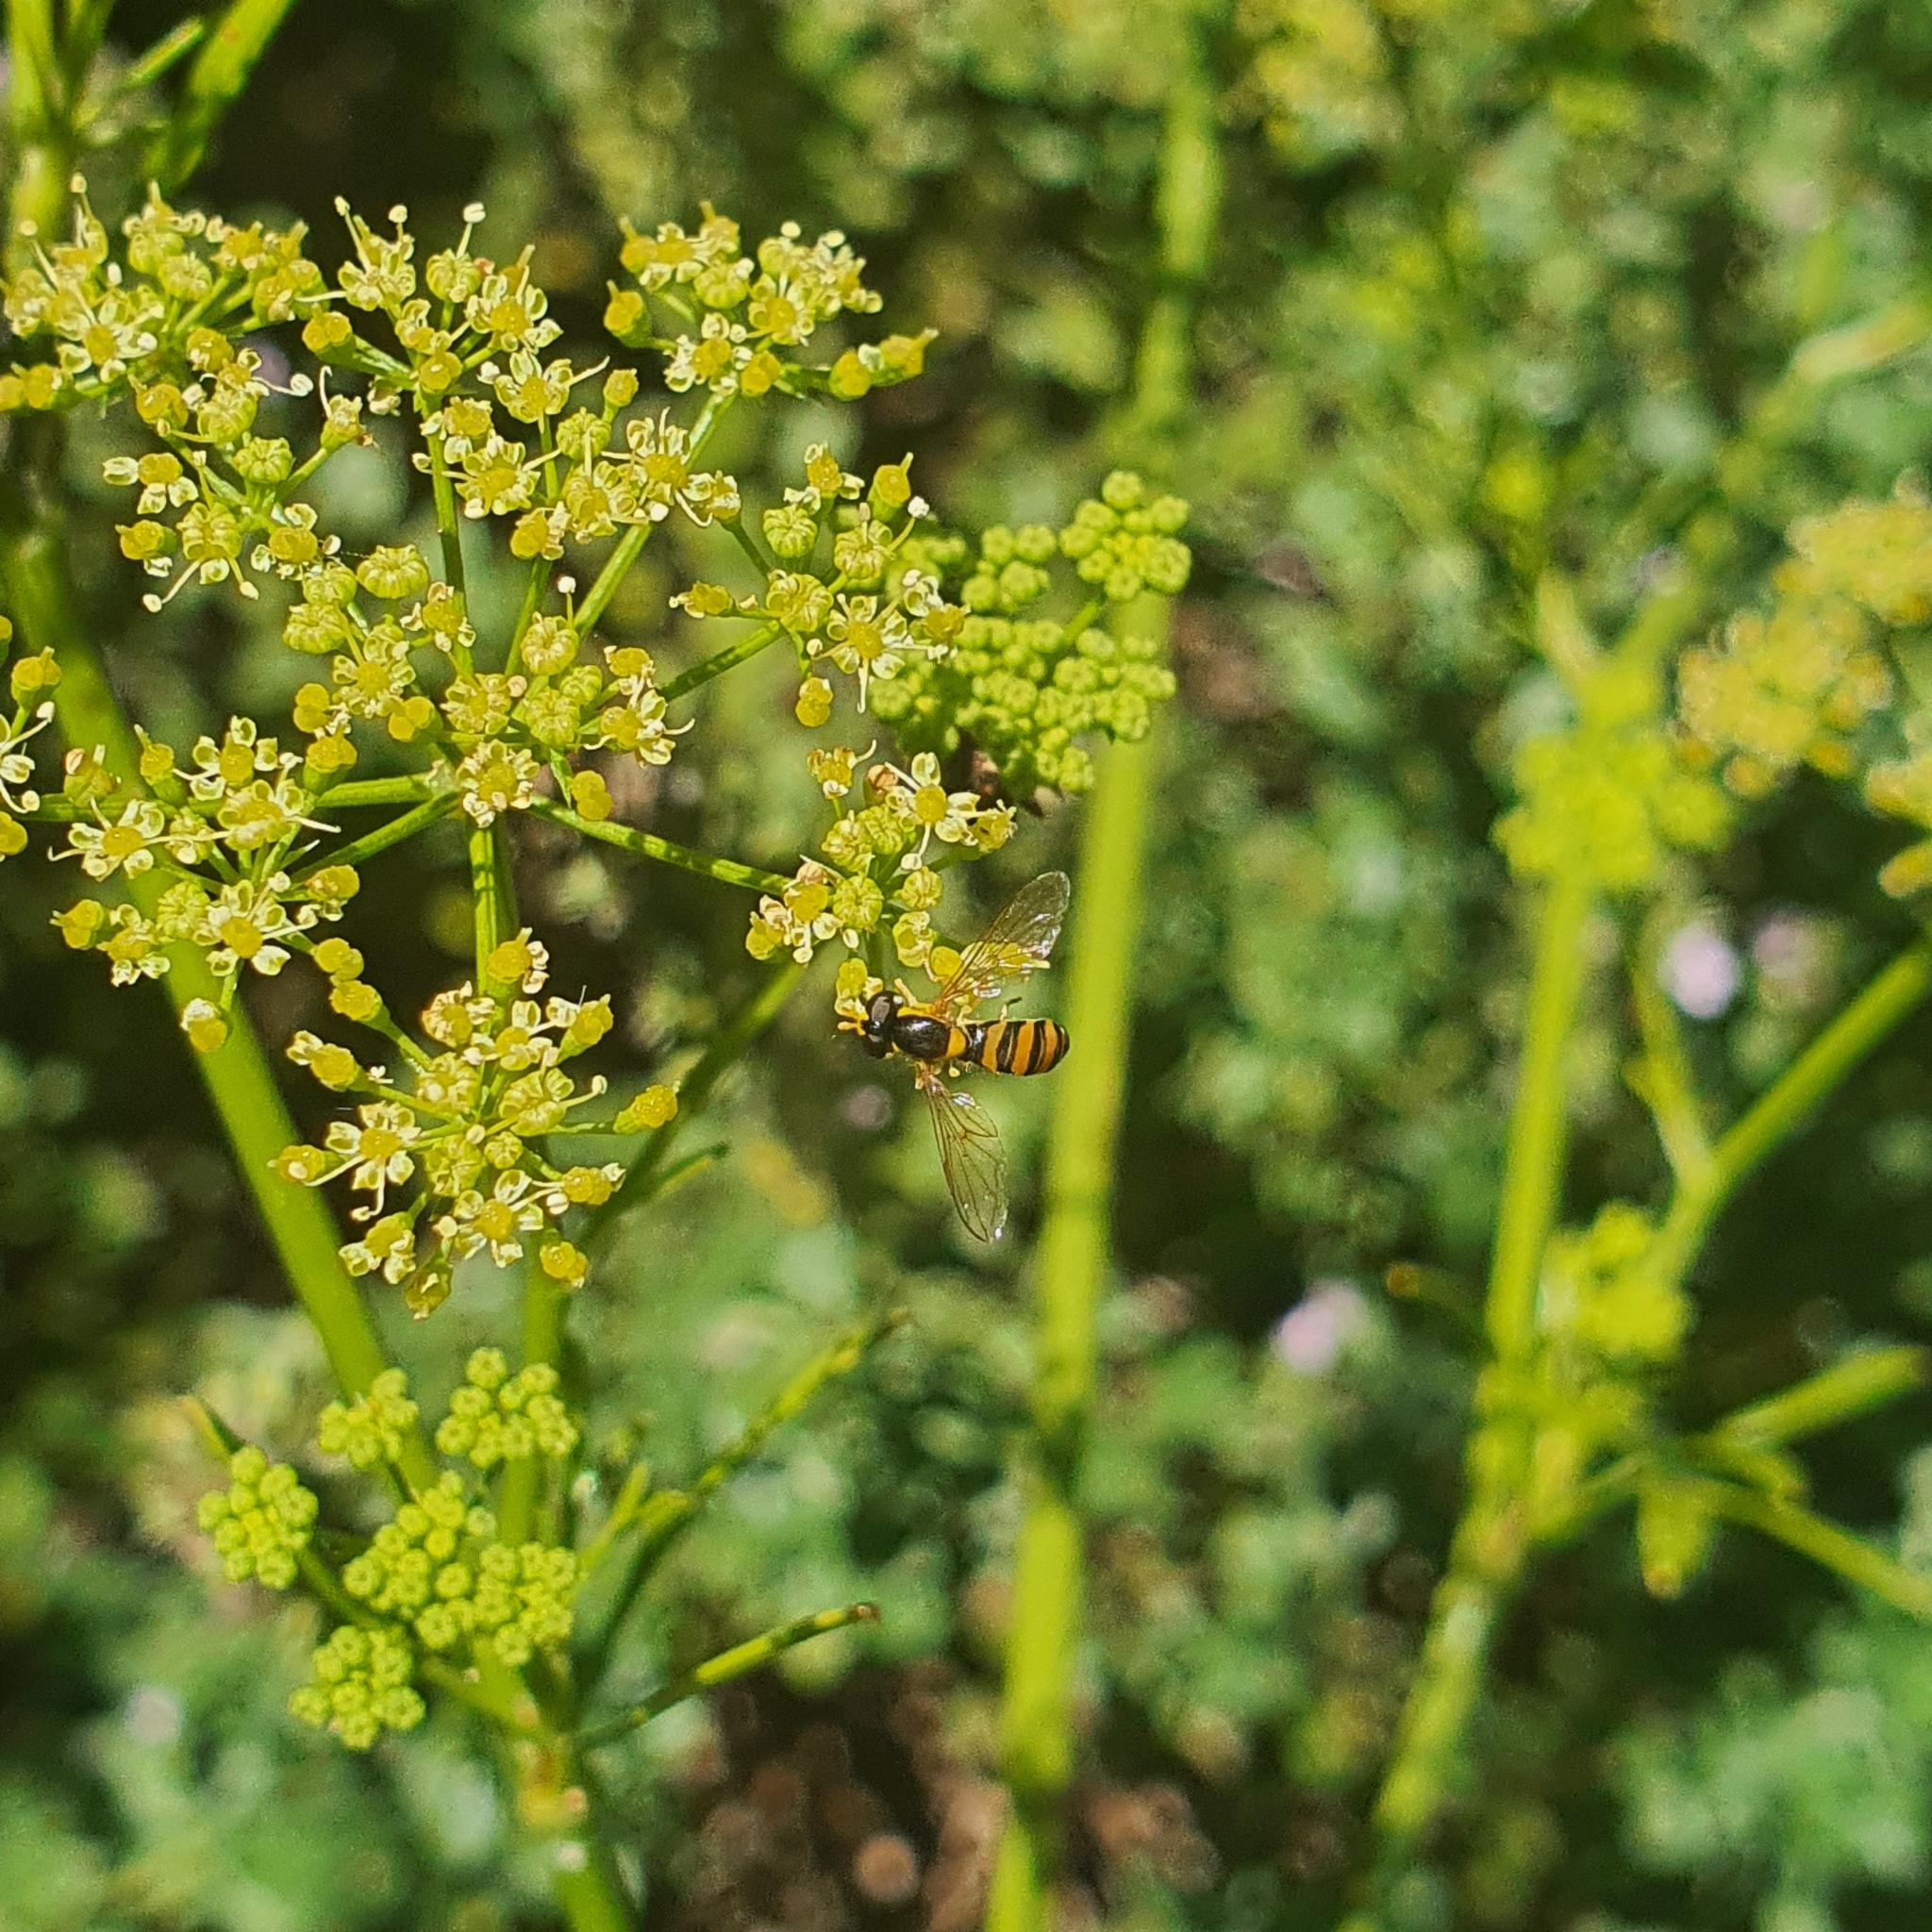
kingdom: Animalia
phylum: Arthropoda
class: Insecta
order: Diptera
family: Syrphidae
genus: Sphaerophoria
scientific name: Sphaerophoria macrogaster
